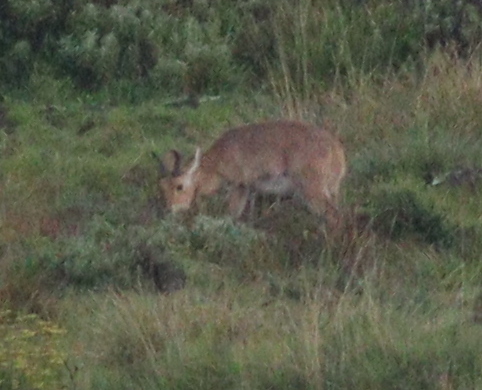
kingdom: Animalia
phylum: Chordata
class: Mammalia
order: Artiodactyla
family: Bovidae
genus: Redunca
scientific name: Redunca redunca
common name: Common reedbuck
